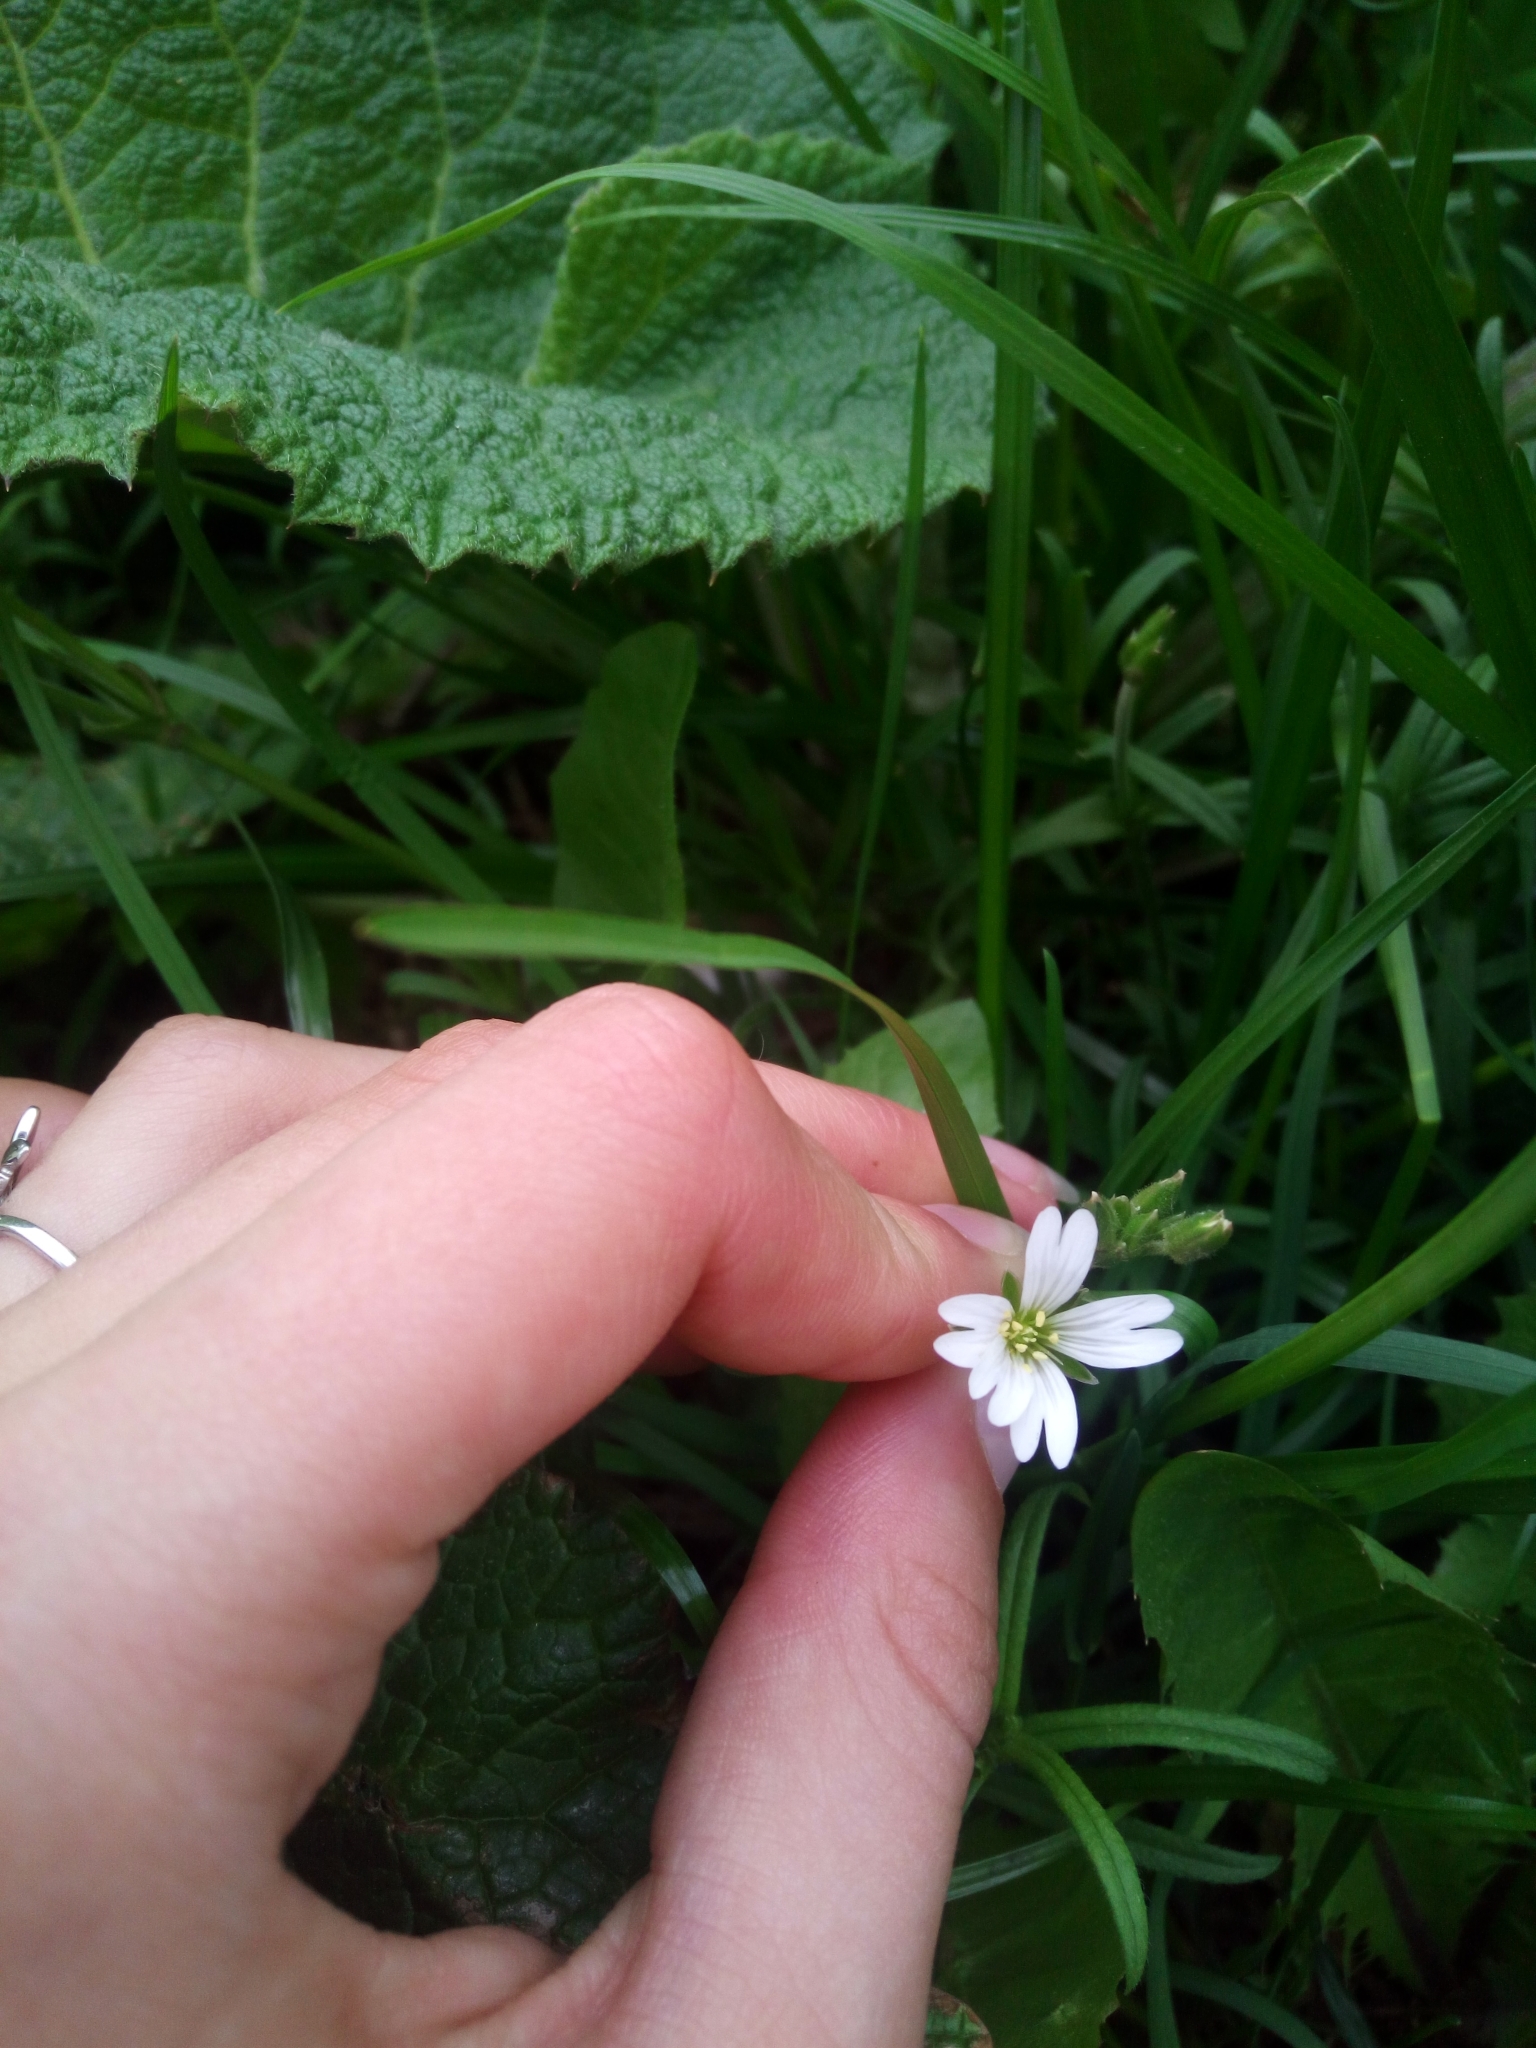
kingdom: Plantae
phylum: Tracheophyta
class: Magnoliopsida
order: Caryophyllales
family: Caryophyllaceae
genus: Rabelera
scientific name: Rabelera holostea
